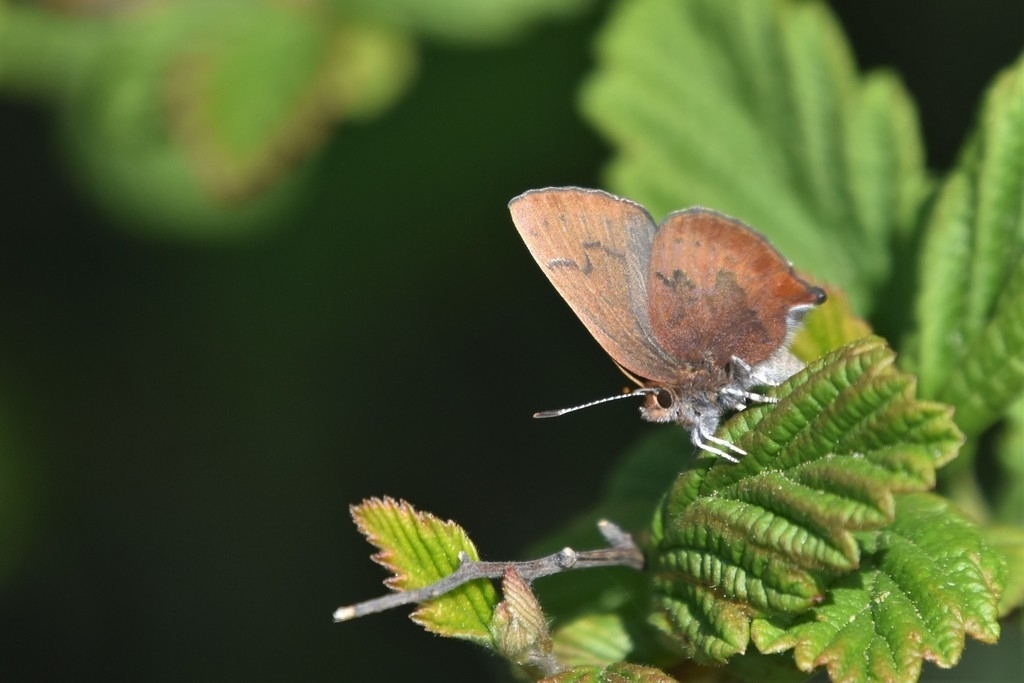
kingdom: Animalia
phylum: Arthropoda
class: Insecta
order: Lepidoptera
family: Lycaenidae
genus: Incisalia
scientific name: Incisalia irioides
